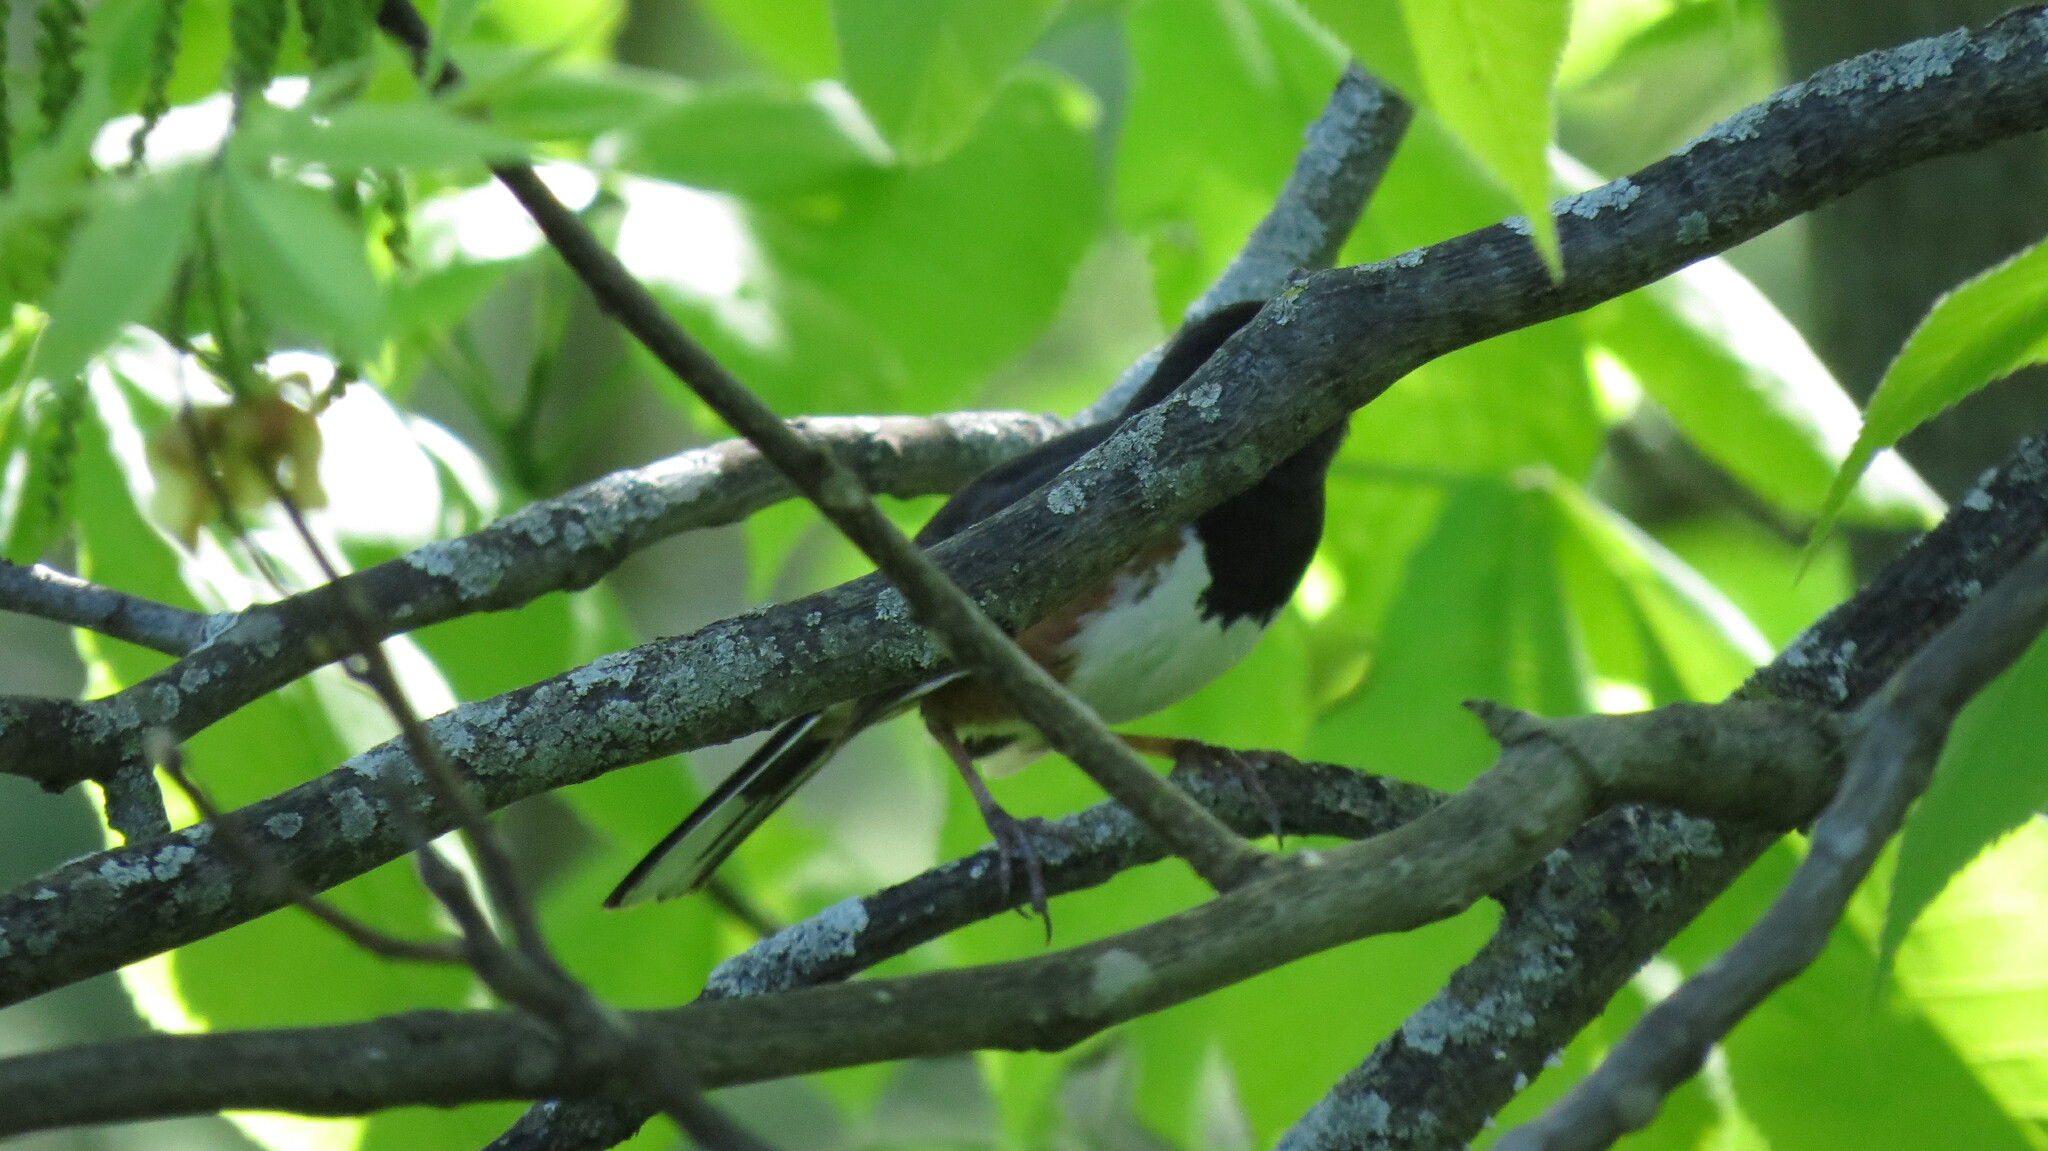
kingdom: Animalia
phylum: Chordata
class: Aves
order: Passeriformes
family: Passerellidae
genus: Pipilo
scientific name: Pipilo erythrophthalmus
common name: Eastern towhee
